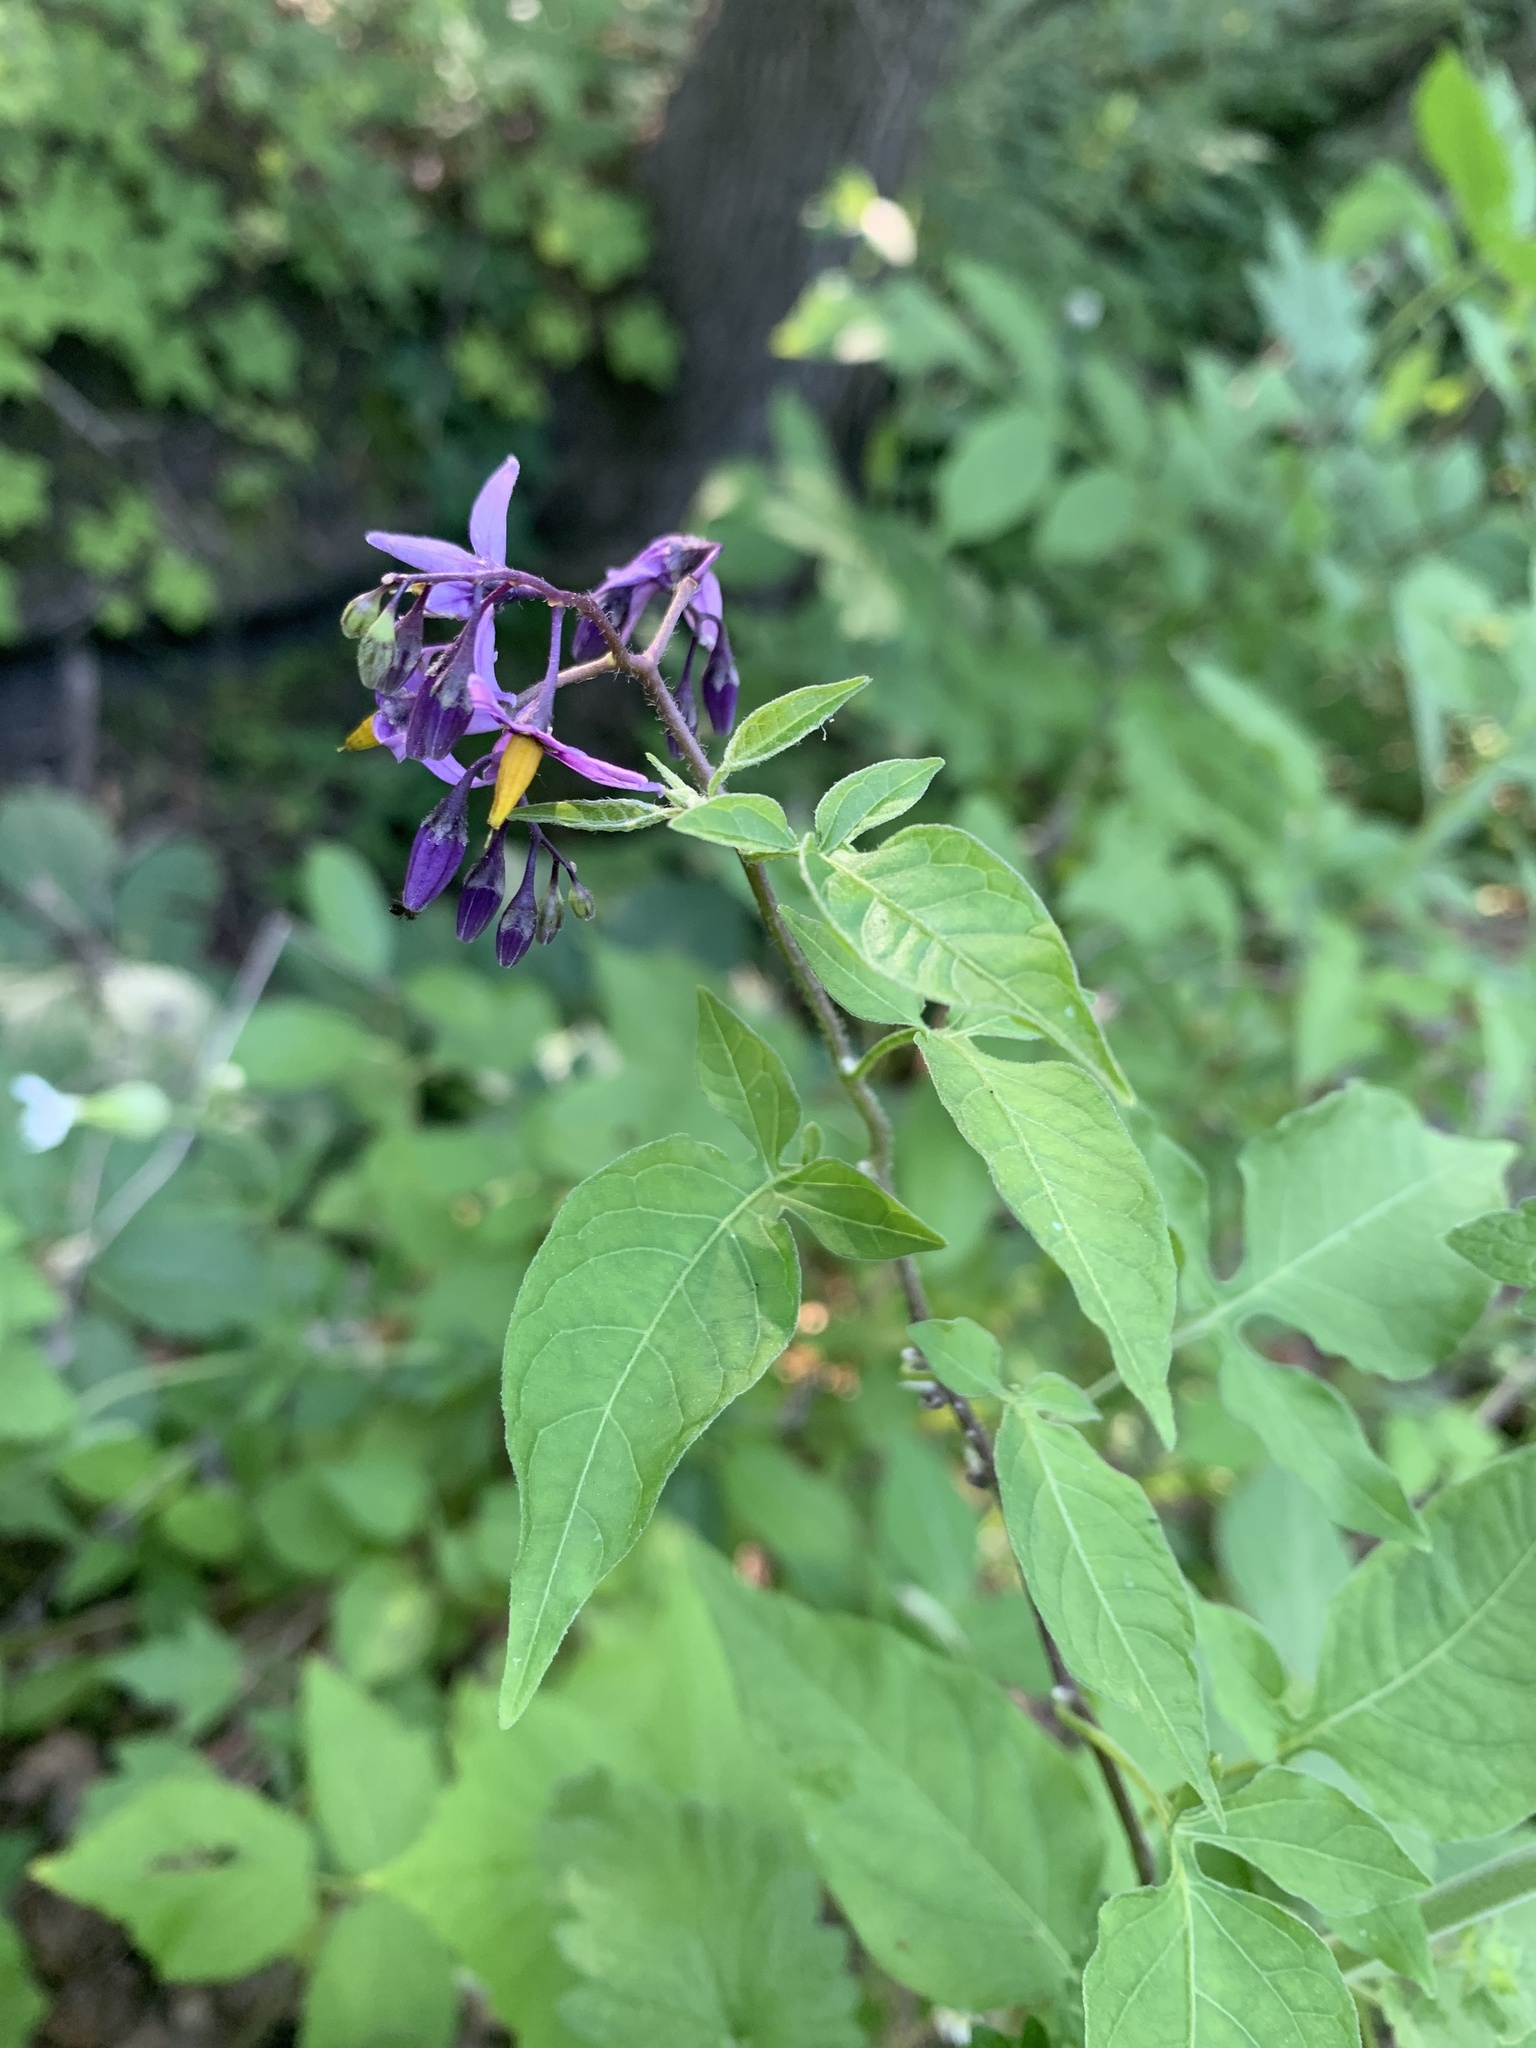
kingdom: Plantae
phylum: Tracheophyta
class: Magnoliopsida
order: Solanales
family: Solanaceae
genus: Solanum
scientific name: Solanum dulcamara
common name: Climbing nightshade
